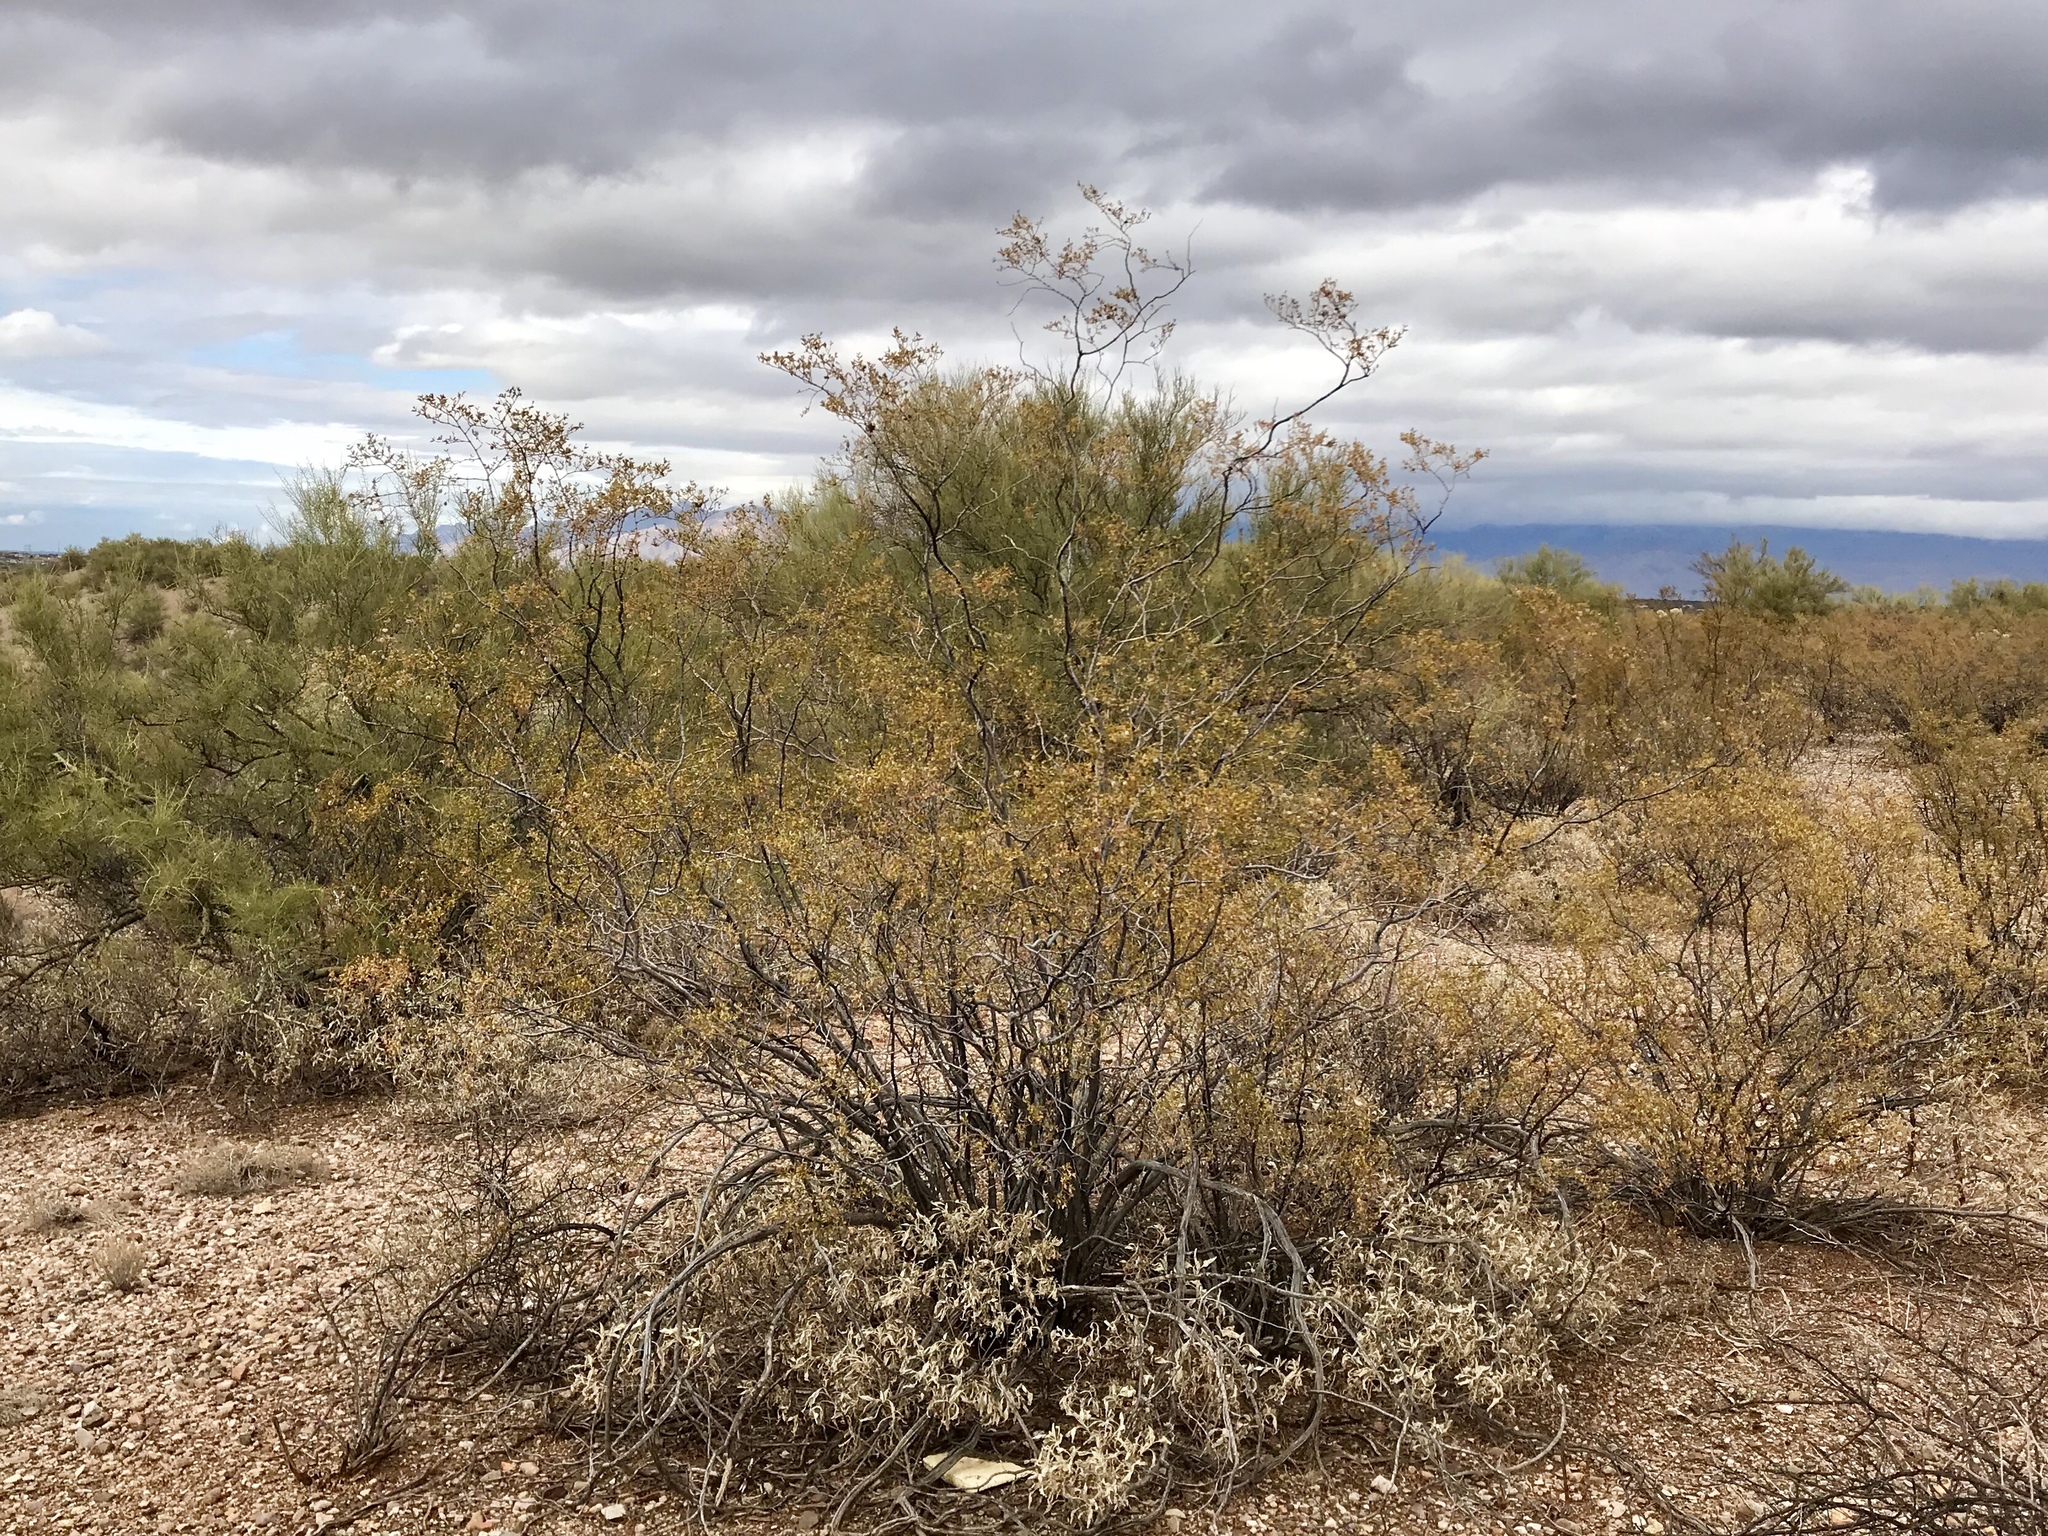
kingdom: Plantae
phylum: Tracheophyta
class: Magnoliopsida
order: Zygophyllales
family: Zygophyllaceae
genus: Larrea
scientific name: Larrea tridentata
